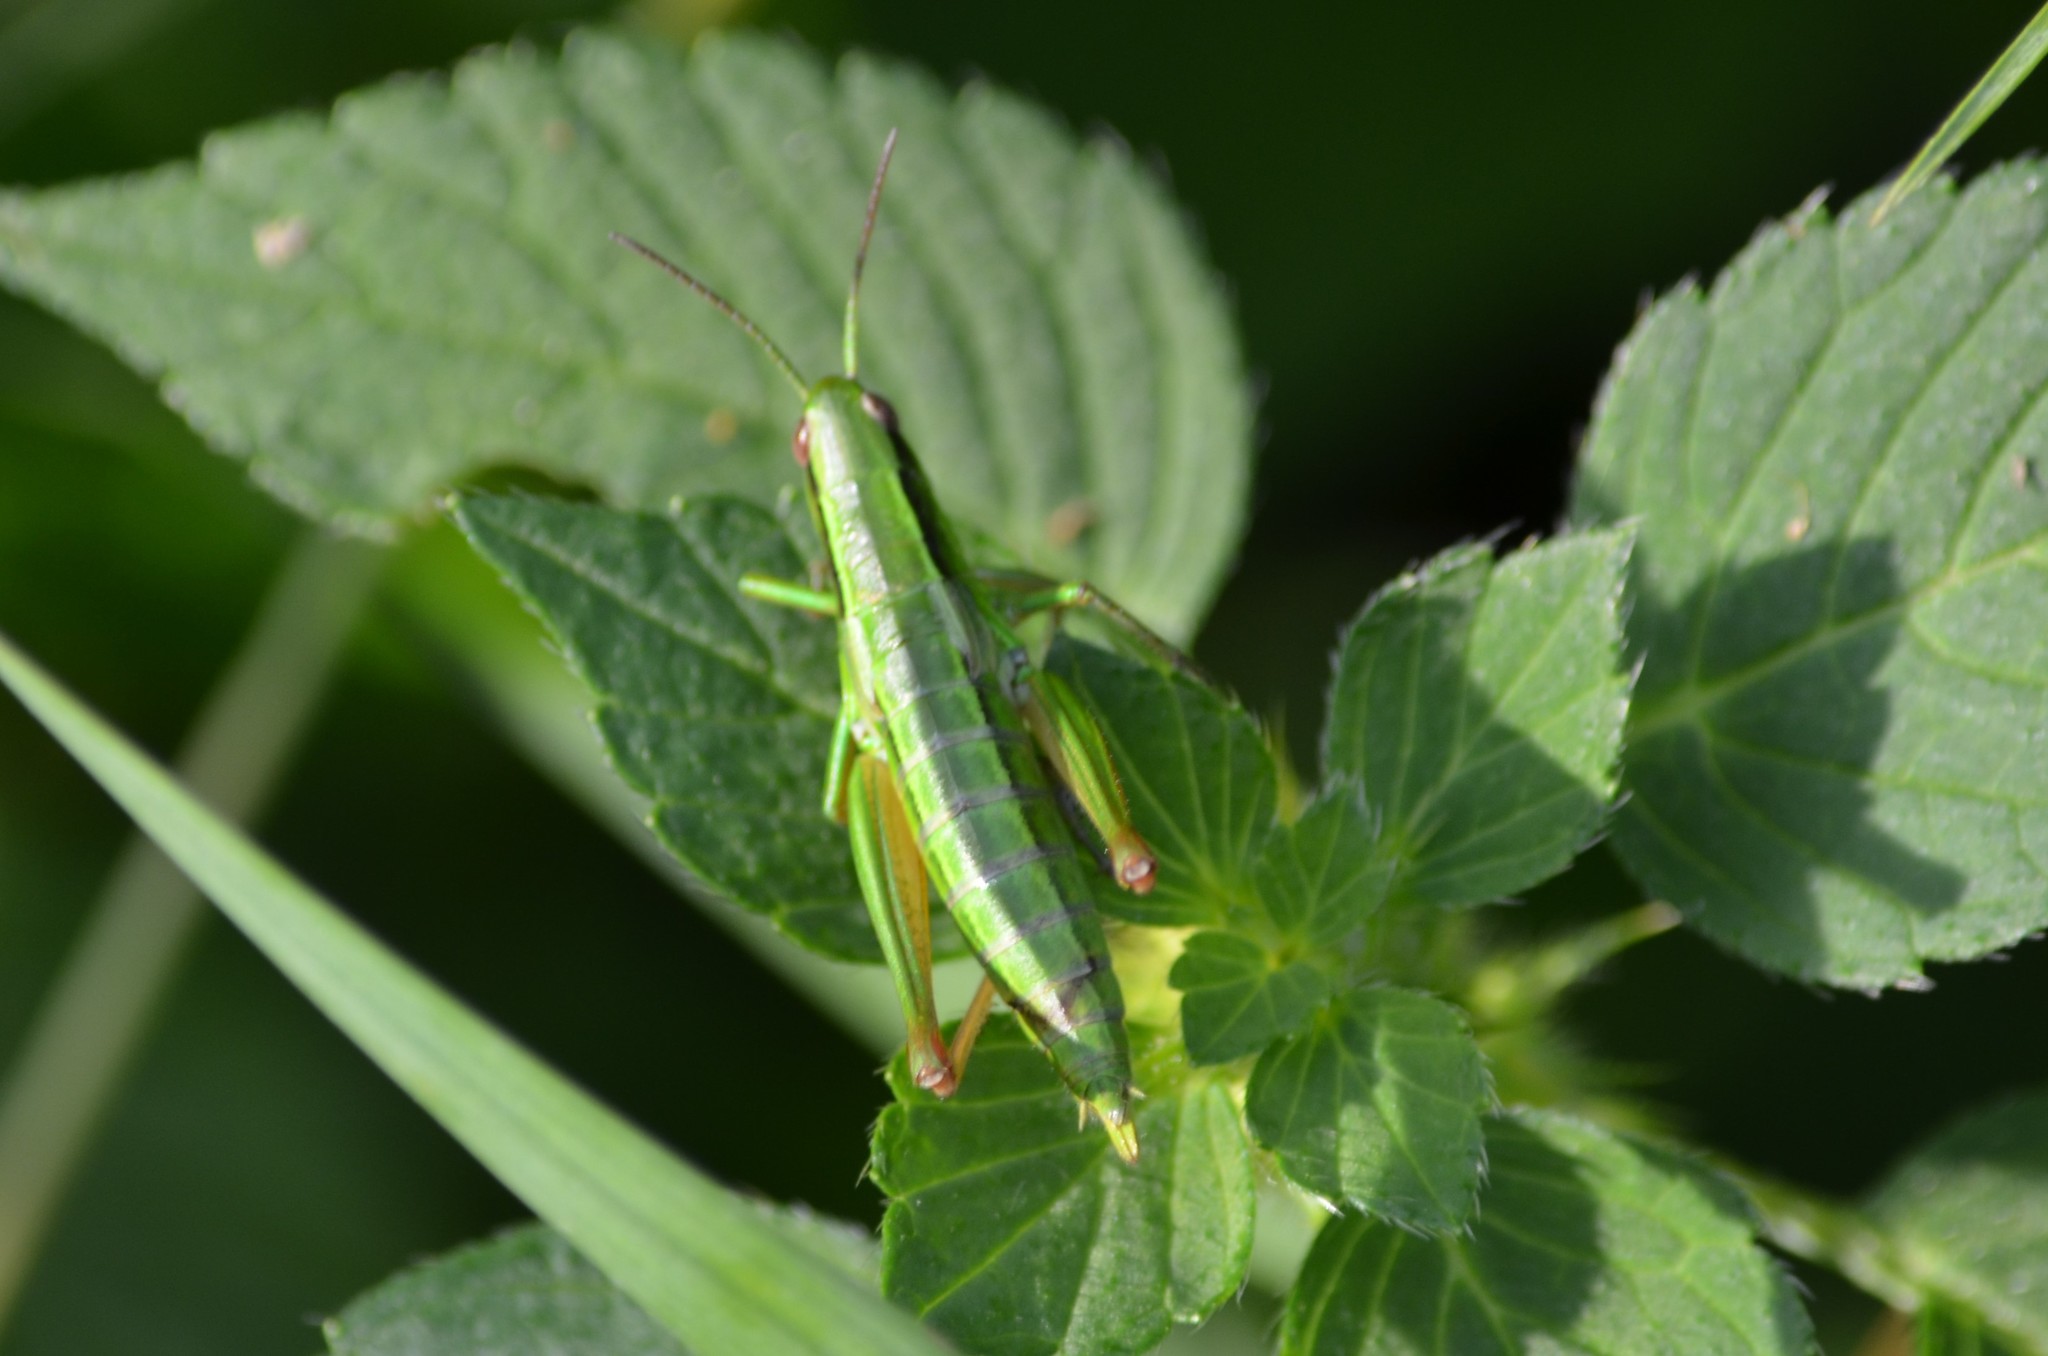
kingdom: Animalia
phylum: Arthropoda
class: Insecta
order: Orthoptera
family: Acrididae
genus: Euthystira
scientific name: Euthystira brachyptera
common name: Small gold grasshopper
